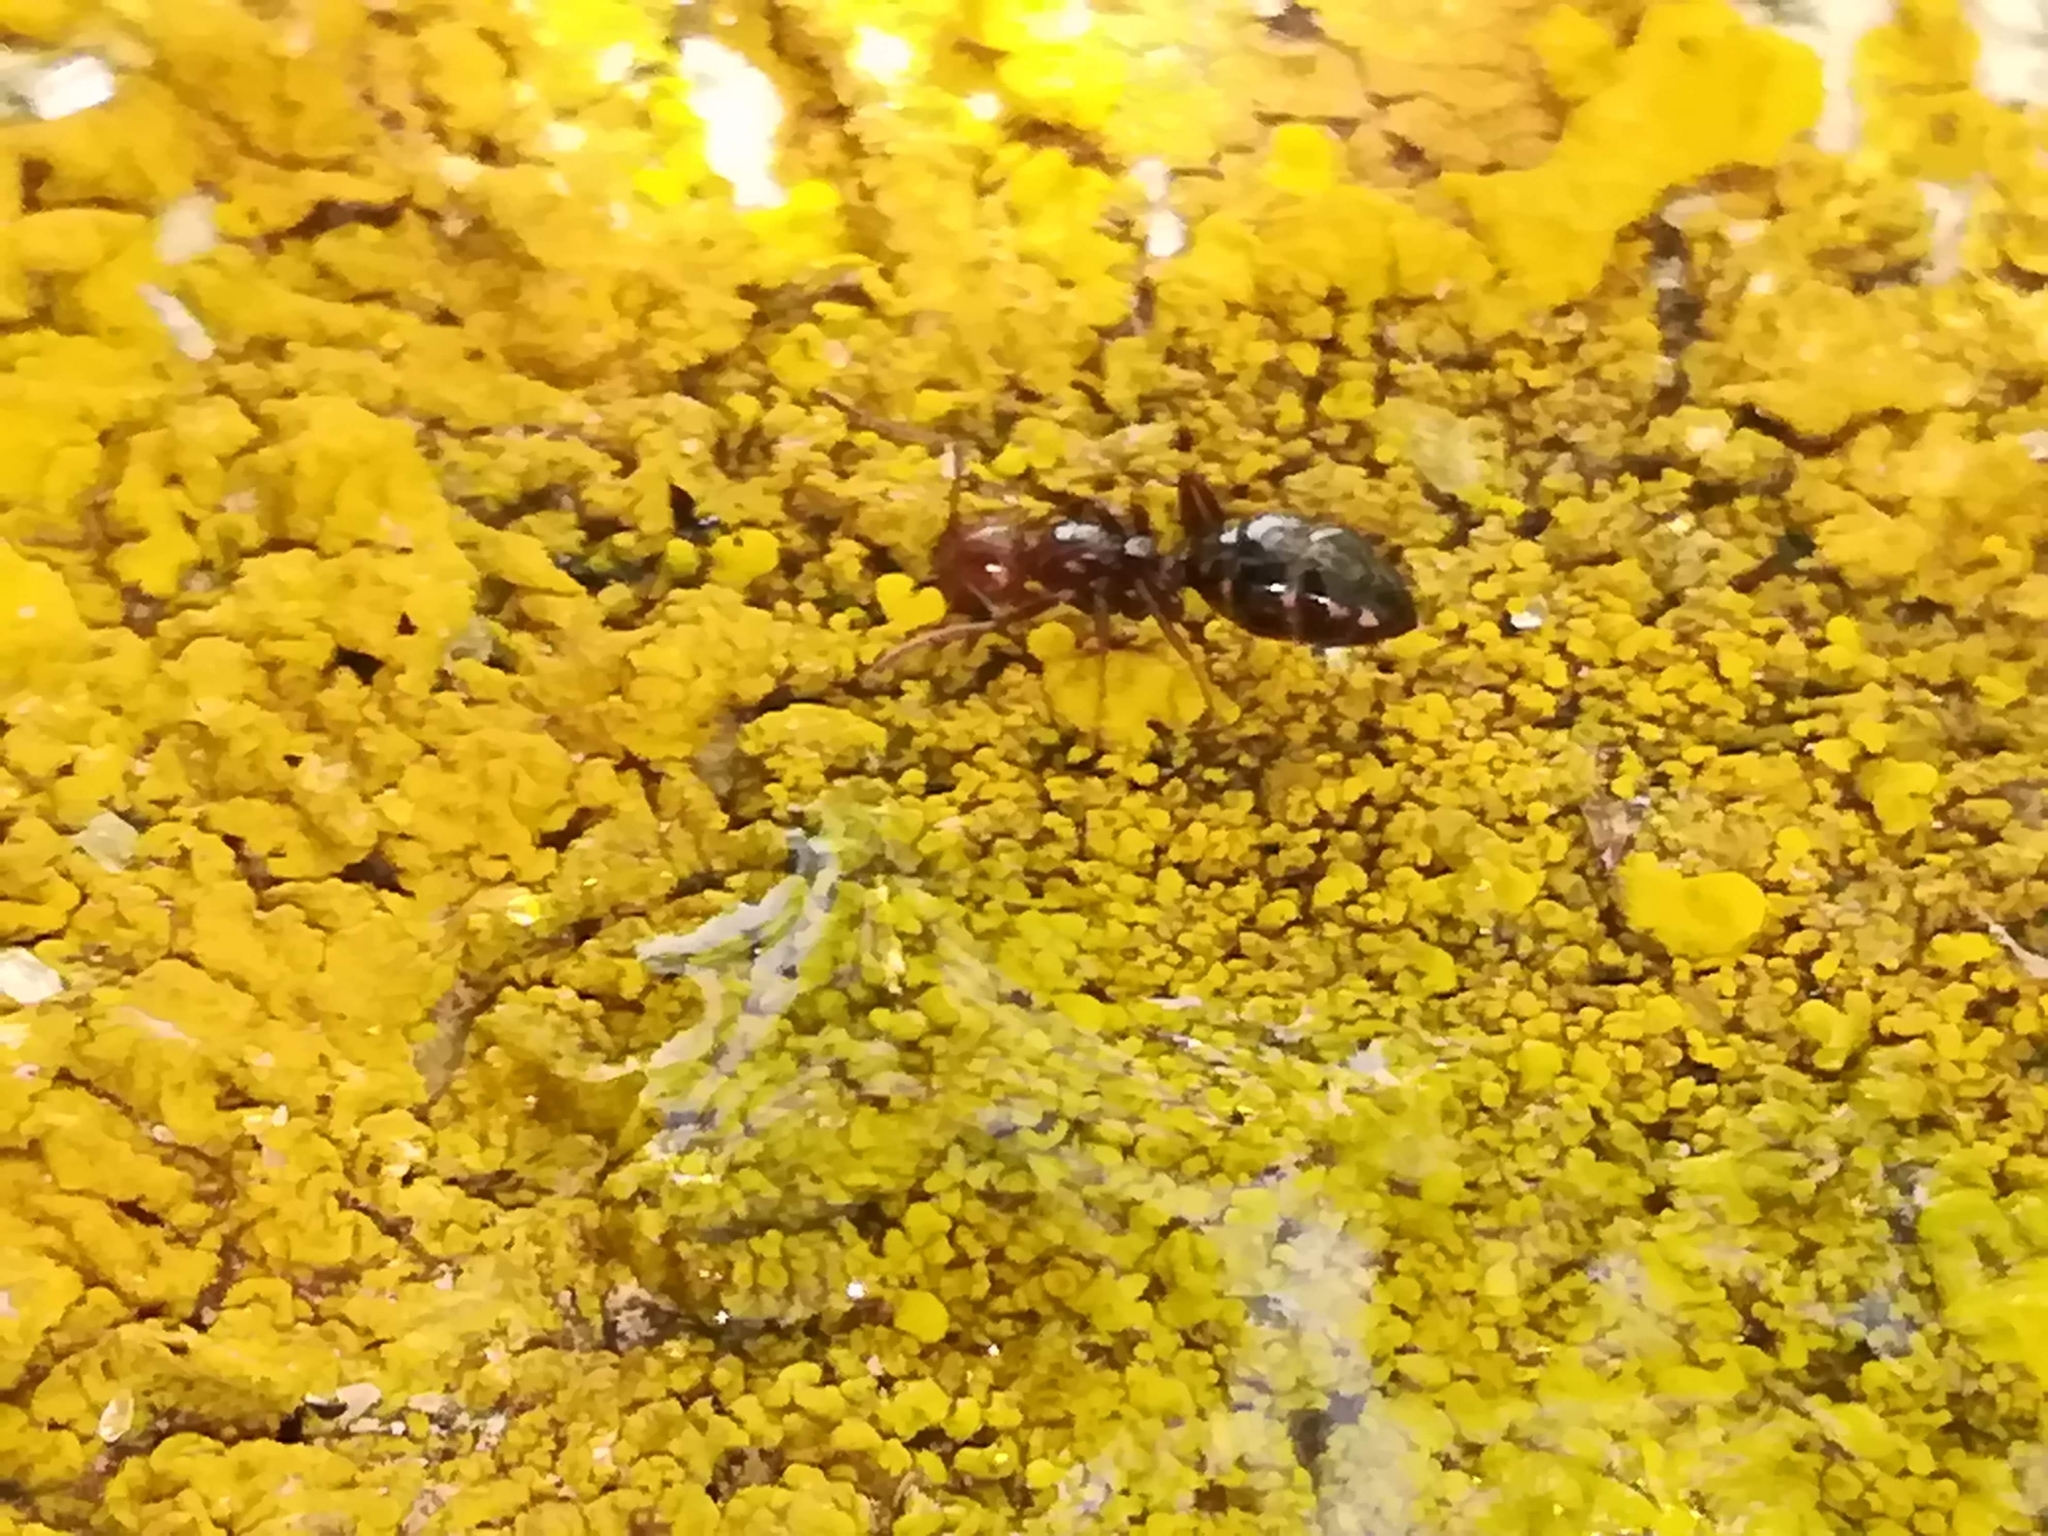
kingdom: Animalia
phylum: Arthropoda
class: Insecta
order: Hymenoptera
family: Formicidae
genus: Camponotus
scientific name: Camponotus lateralis
